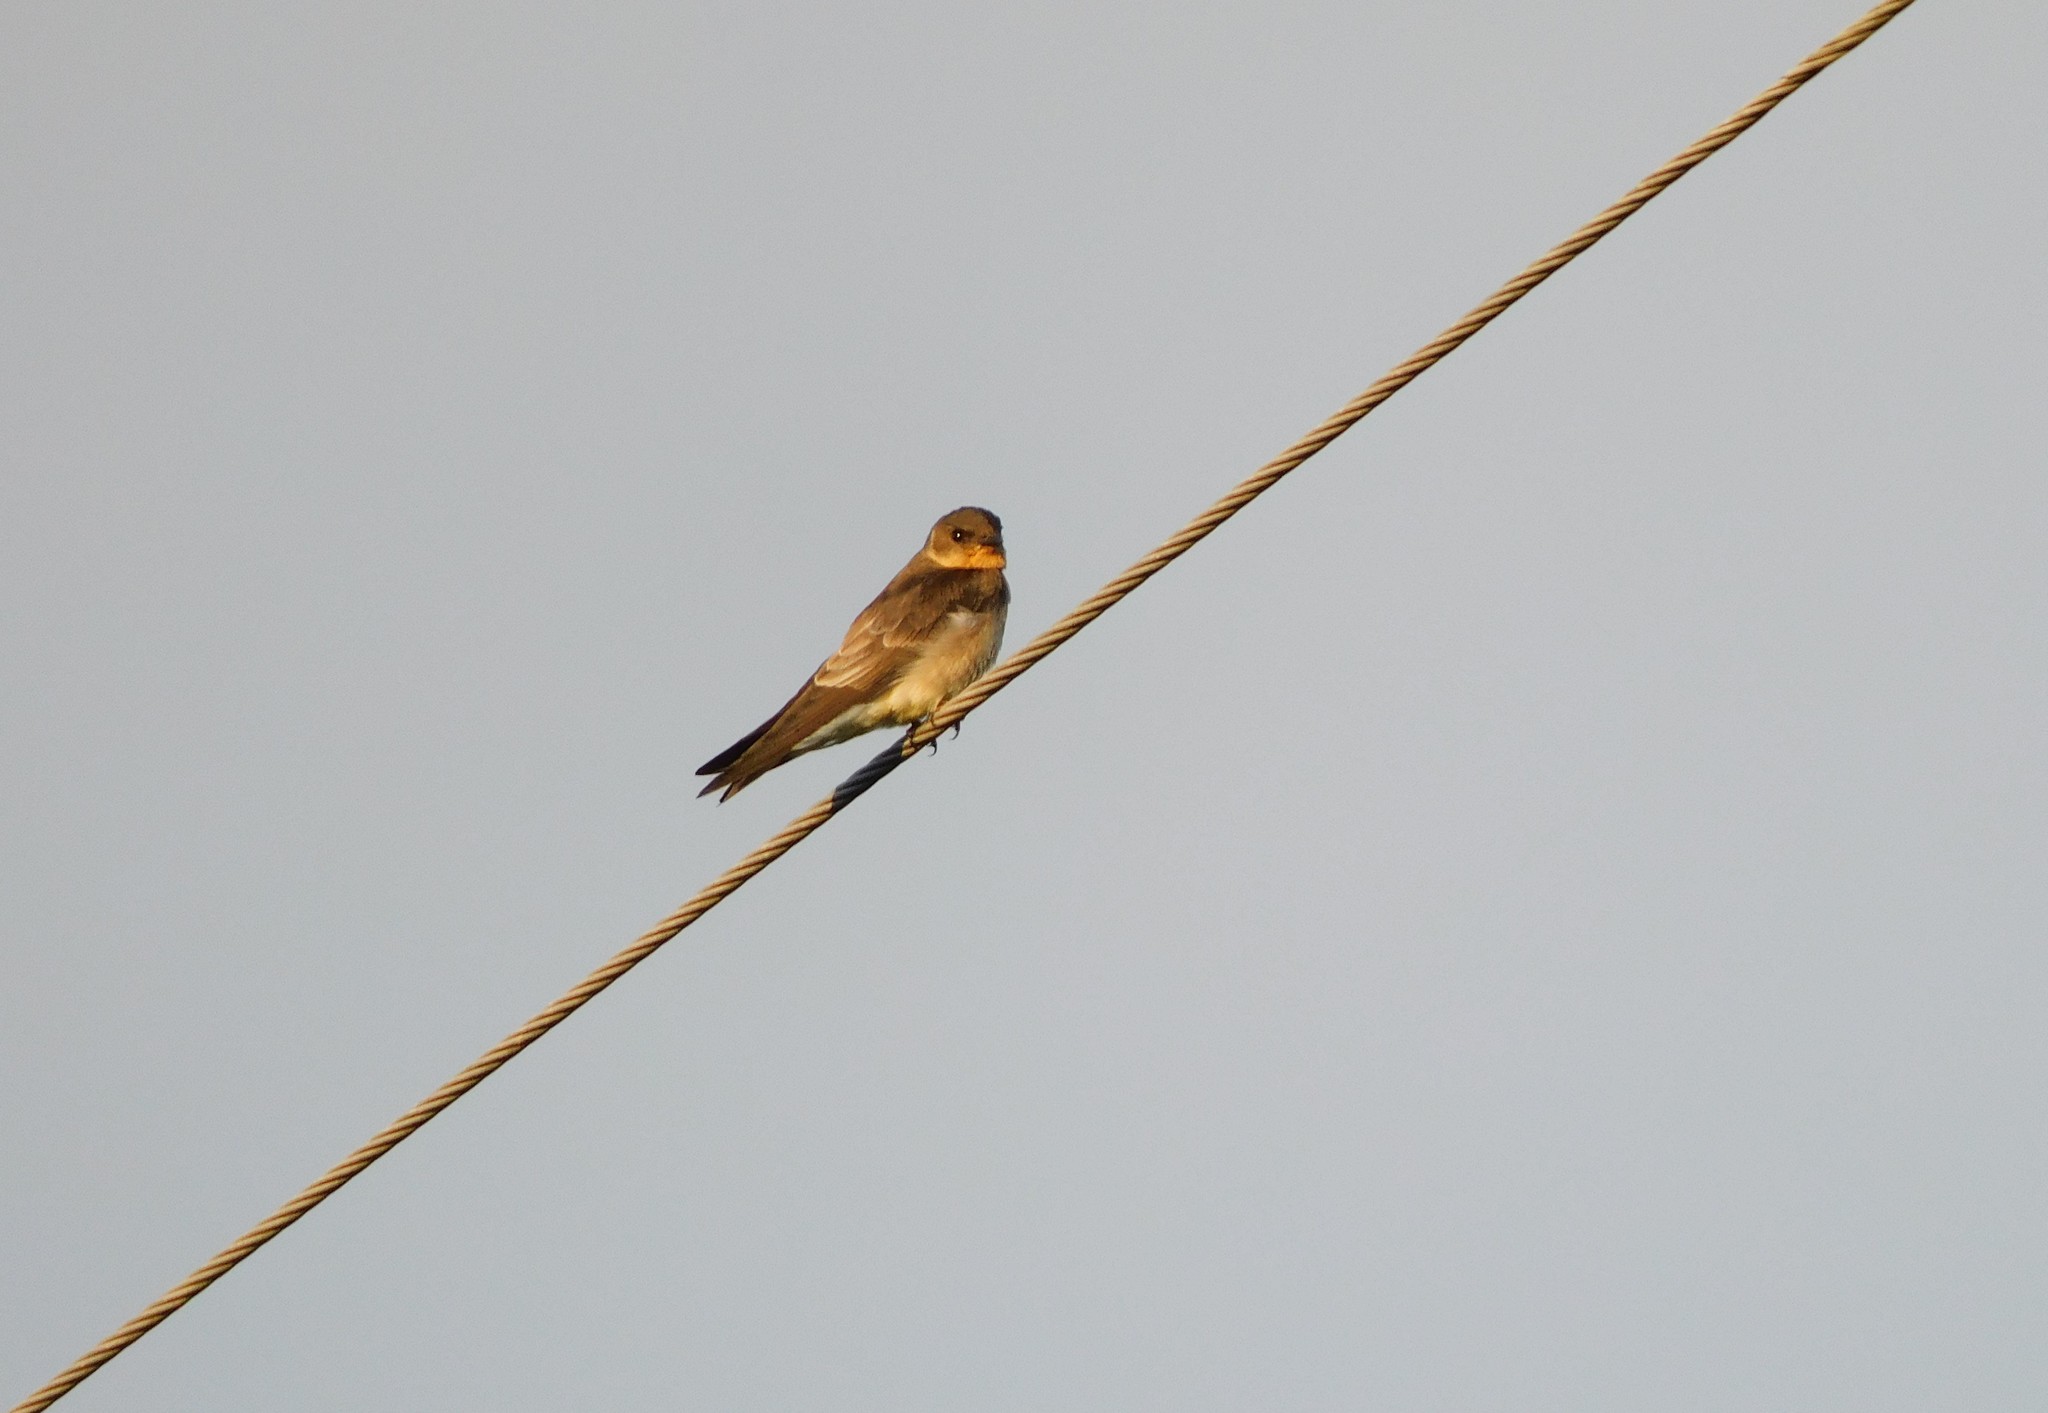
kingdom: Animalia
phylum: Chordata
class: Aves
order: Passeriformes
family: Hirundinidae
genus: Stelgidopteryx
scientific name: Stelgidopteryx ruficollis
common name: Southern rough-winged swallow
